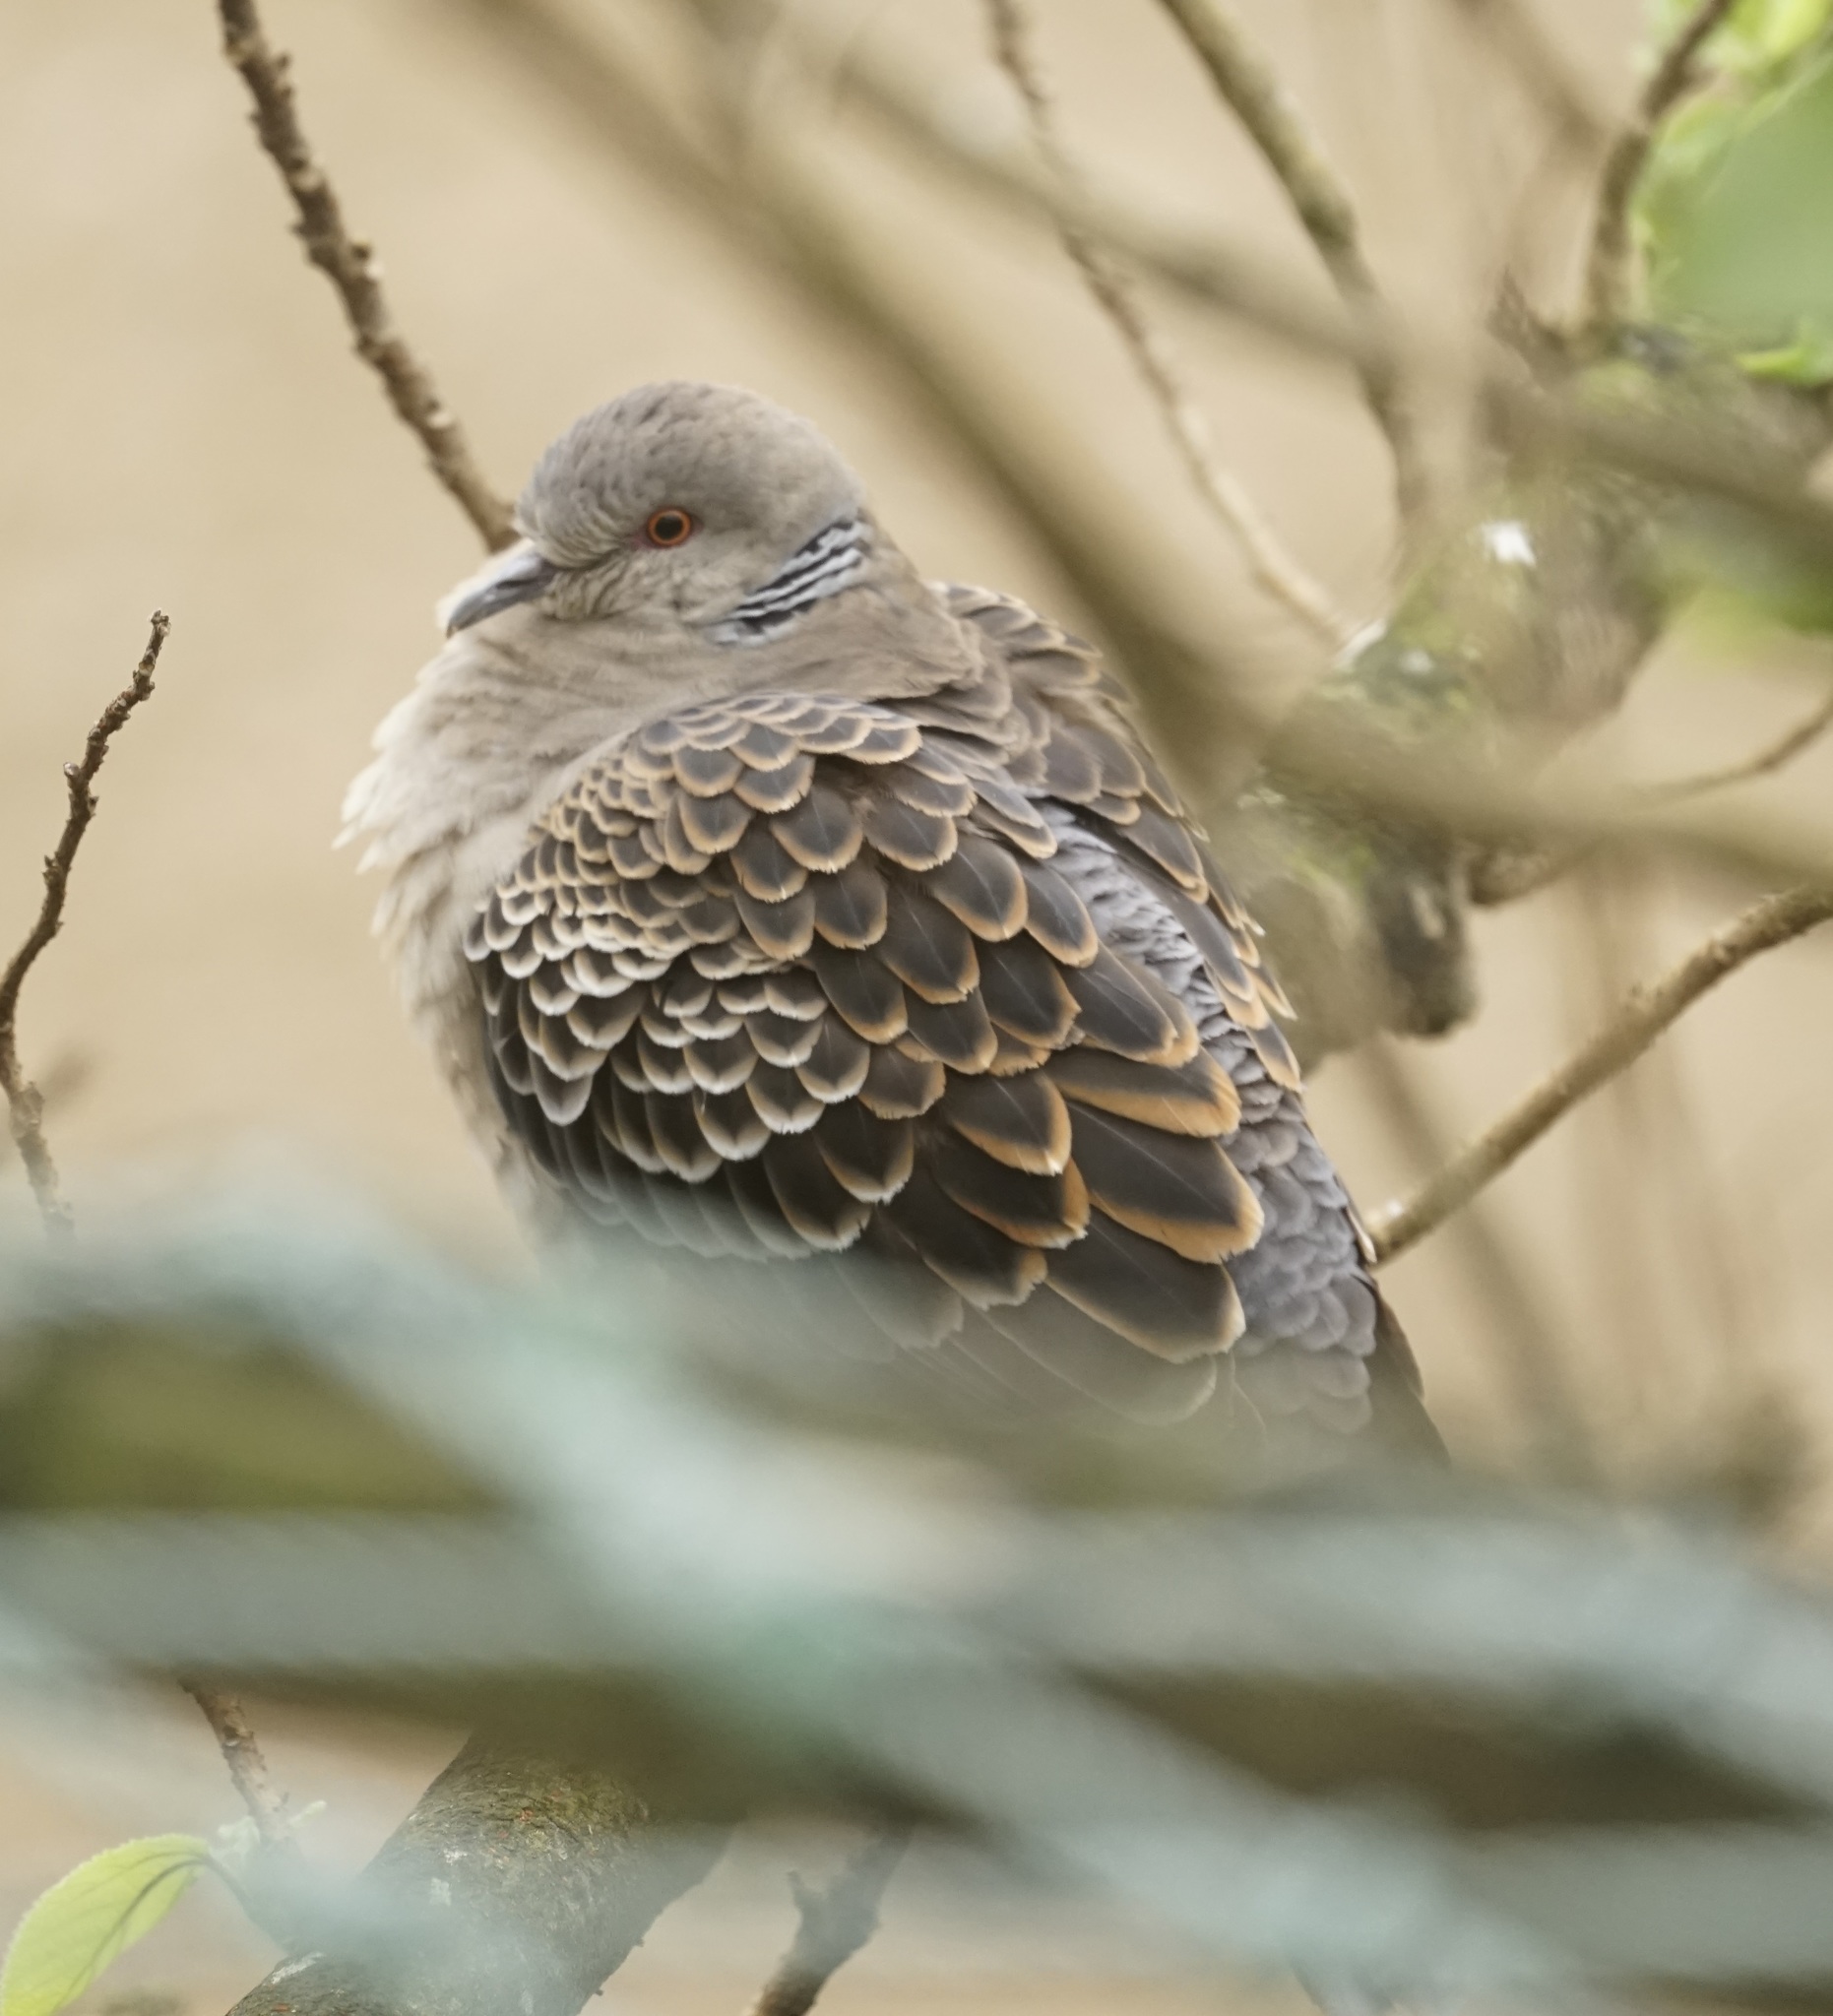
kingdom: Animalia
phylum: Chordata
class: Aves
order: Columbiformes
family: Columbidae
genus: Streptopelia
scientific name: Streptopelia orientalis
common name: Oriental turtle dove
